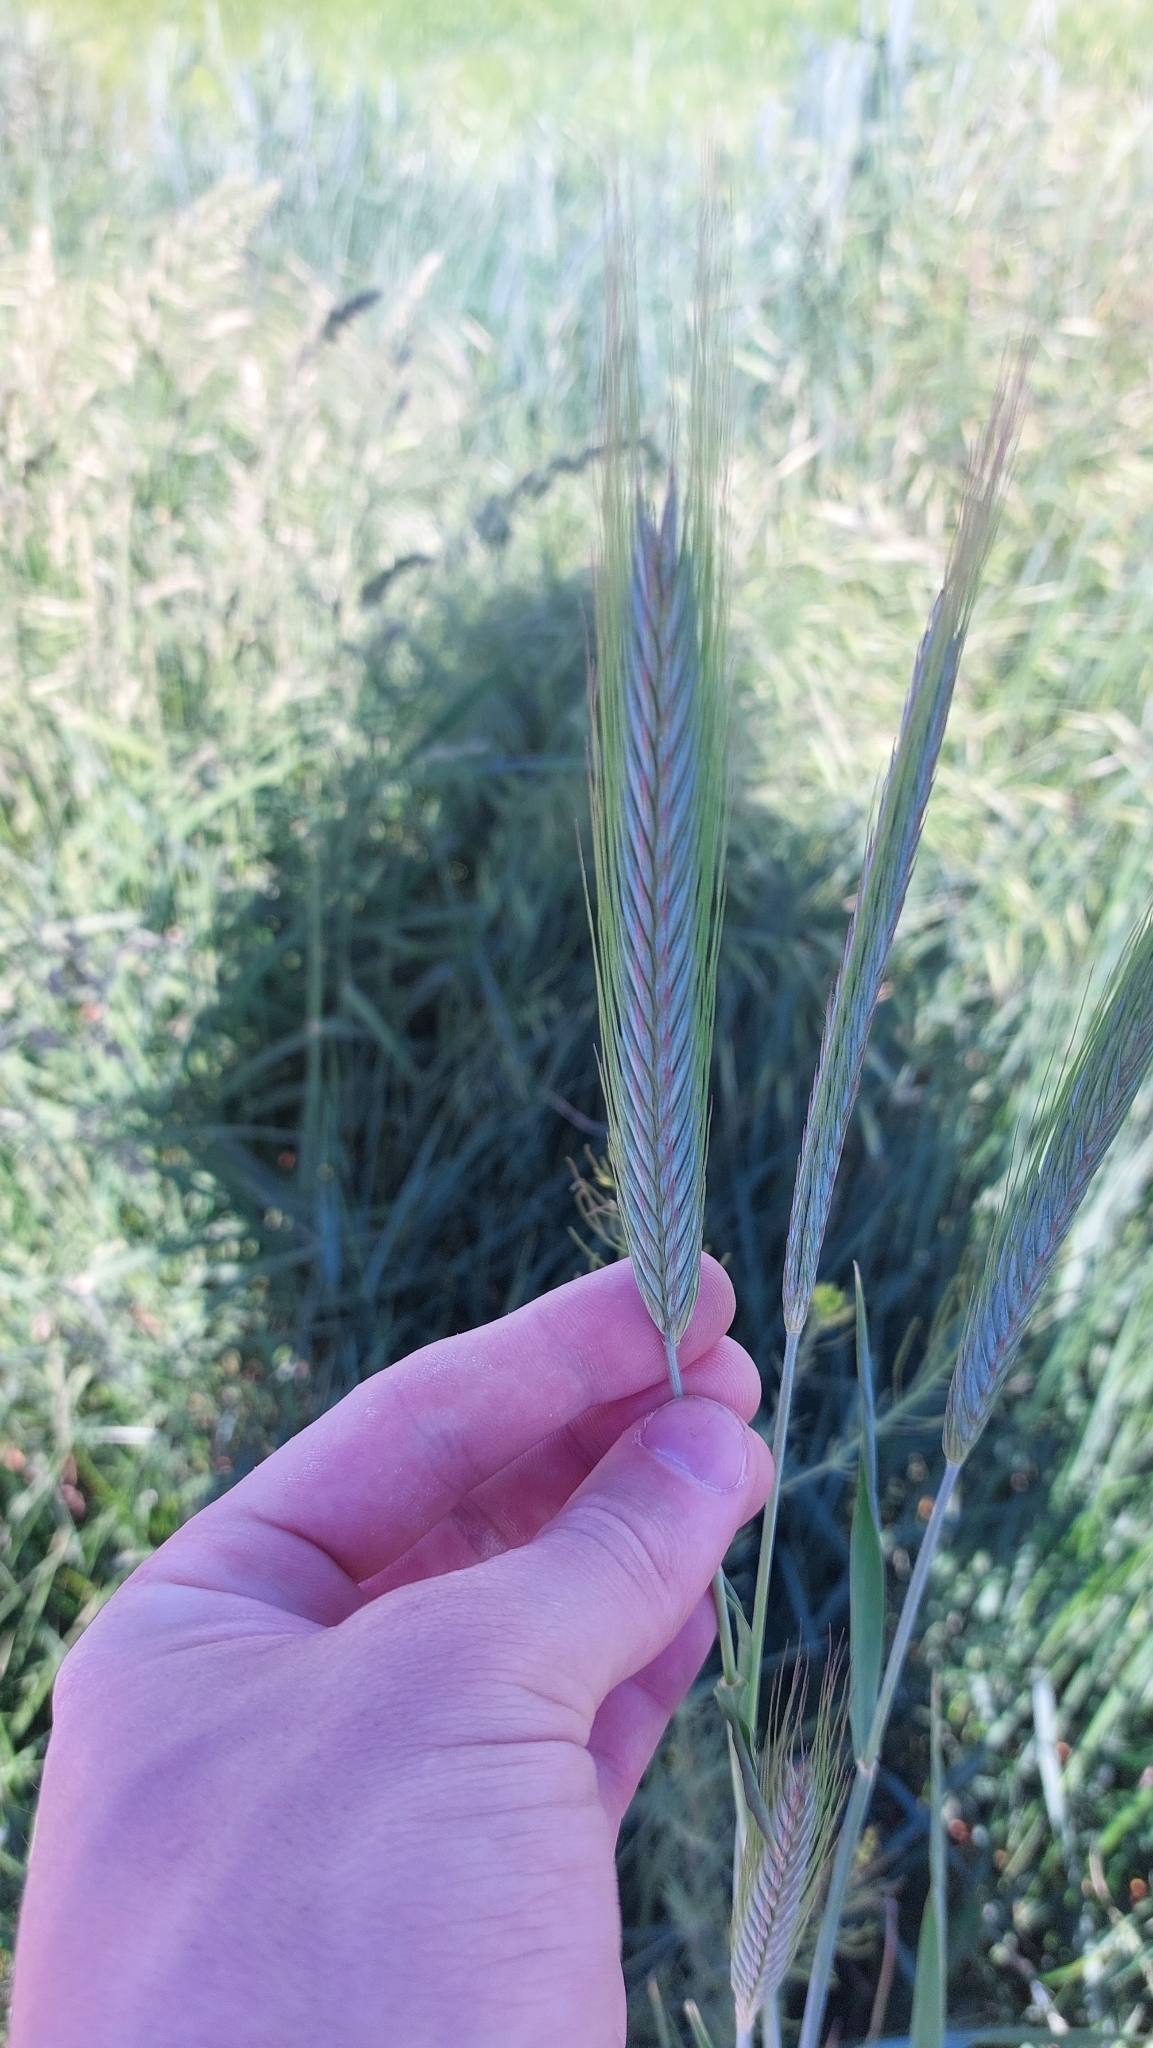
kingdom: Plantae
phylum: Tracheophyta
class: Liliopsida
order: Poales
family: Poaceae
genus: Secale
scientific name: Secale cereale
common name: Rye
